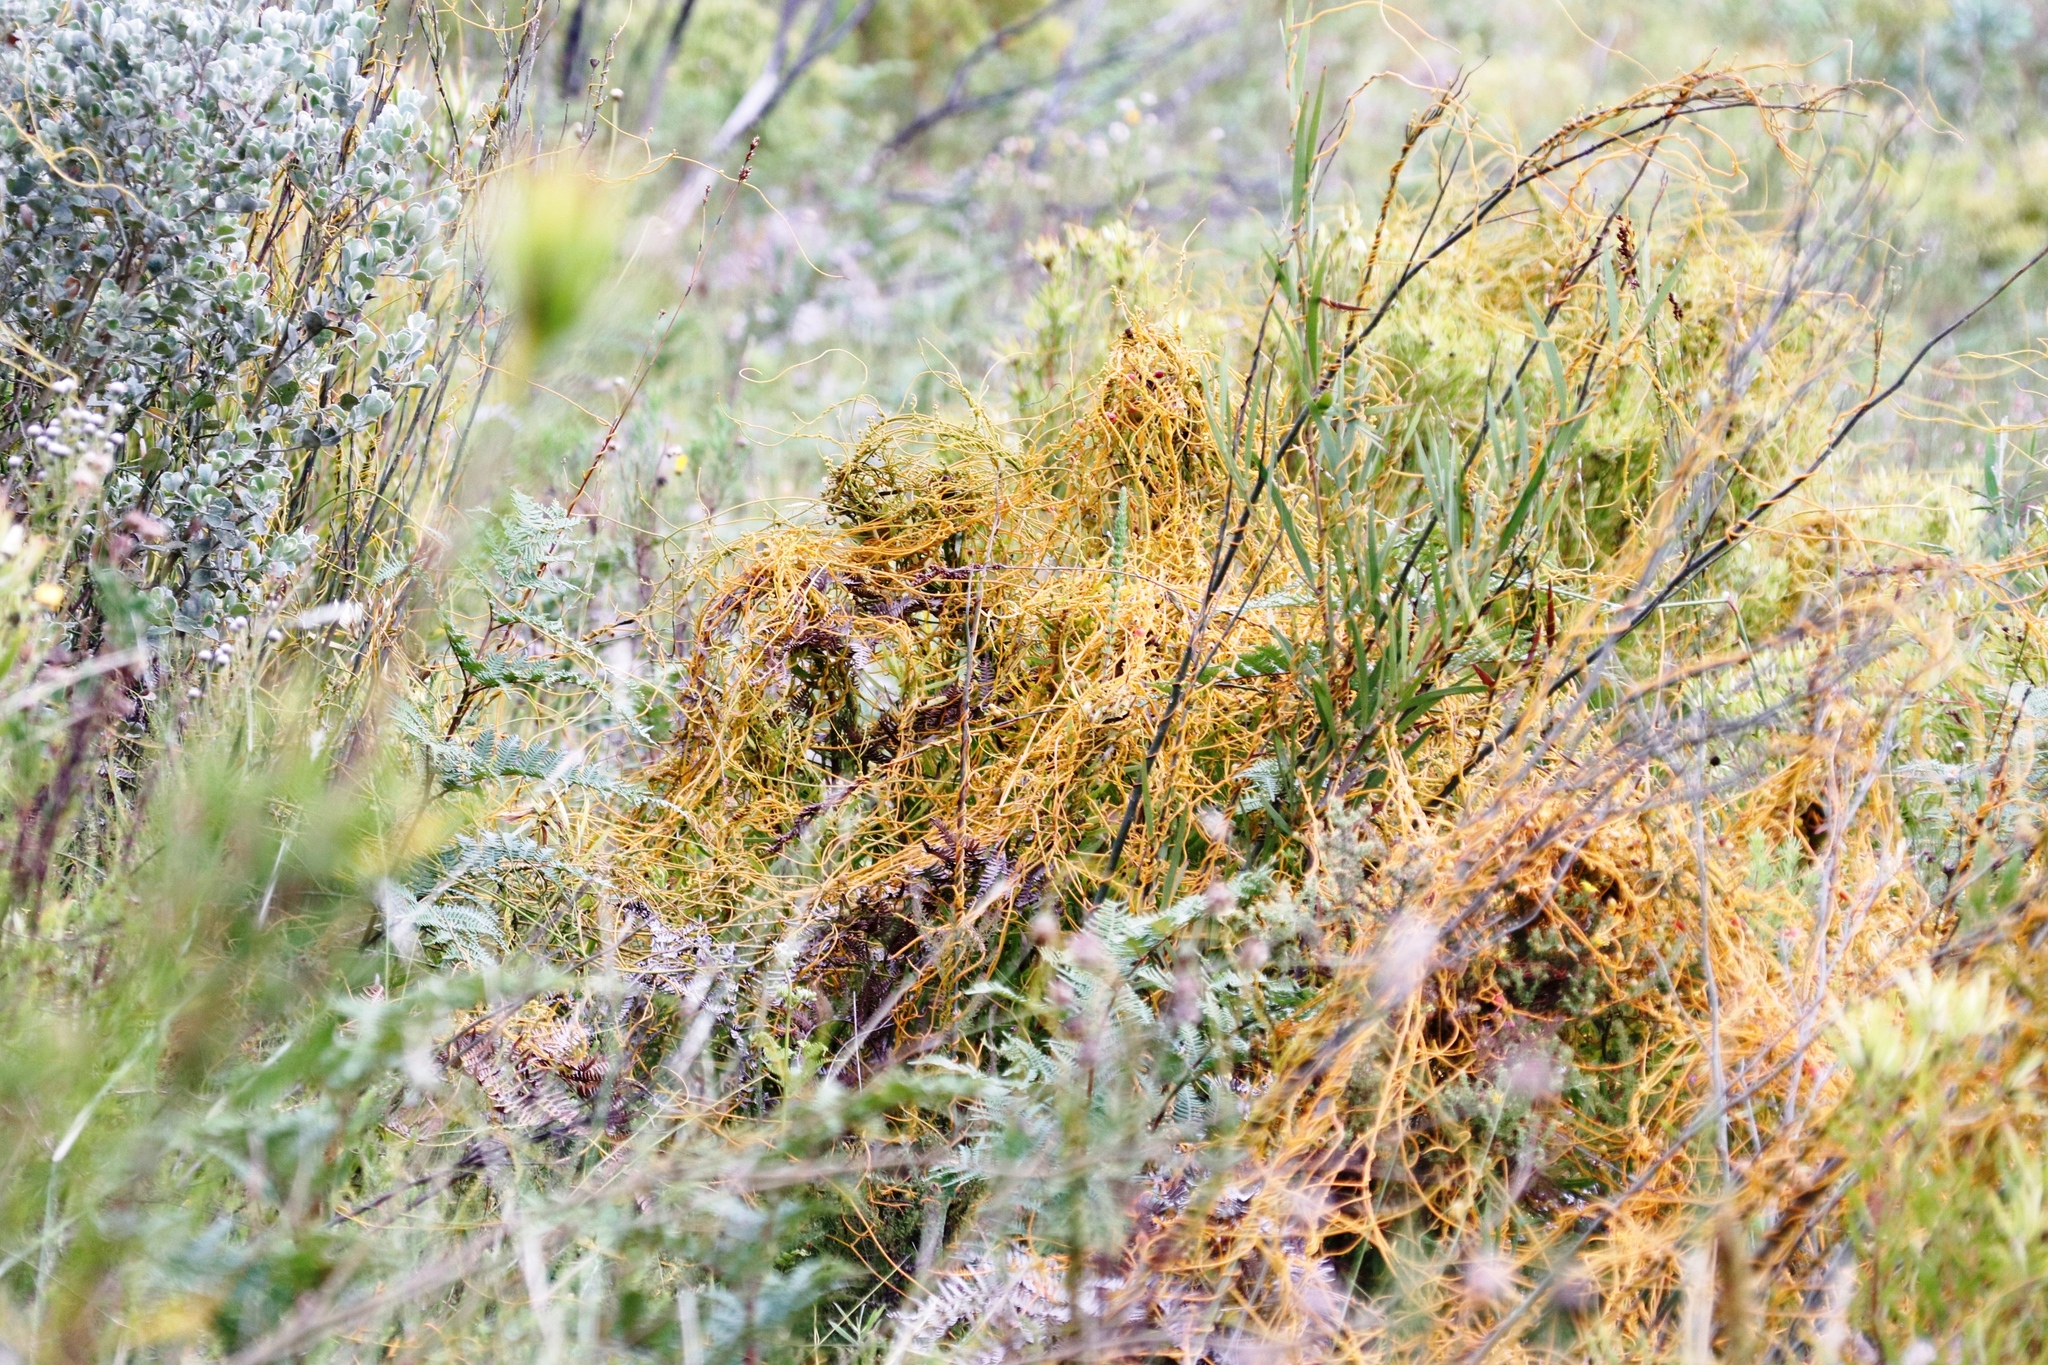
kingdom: Plantae
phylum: Tracheophyta
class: Magnoliopsida
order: Laurales
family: Lauraceae
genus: Cassytha
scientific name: Cassytha ciliolata
